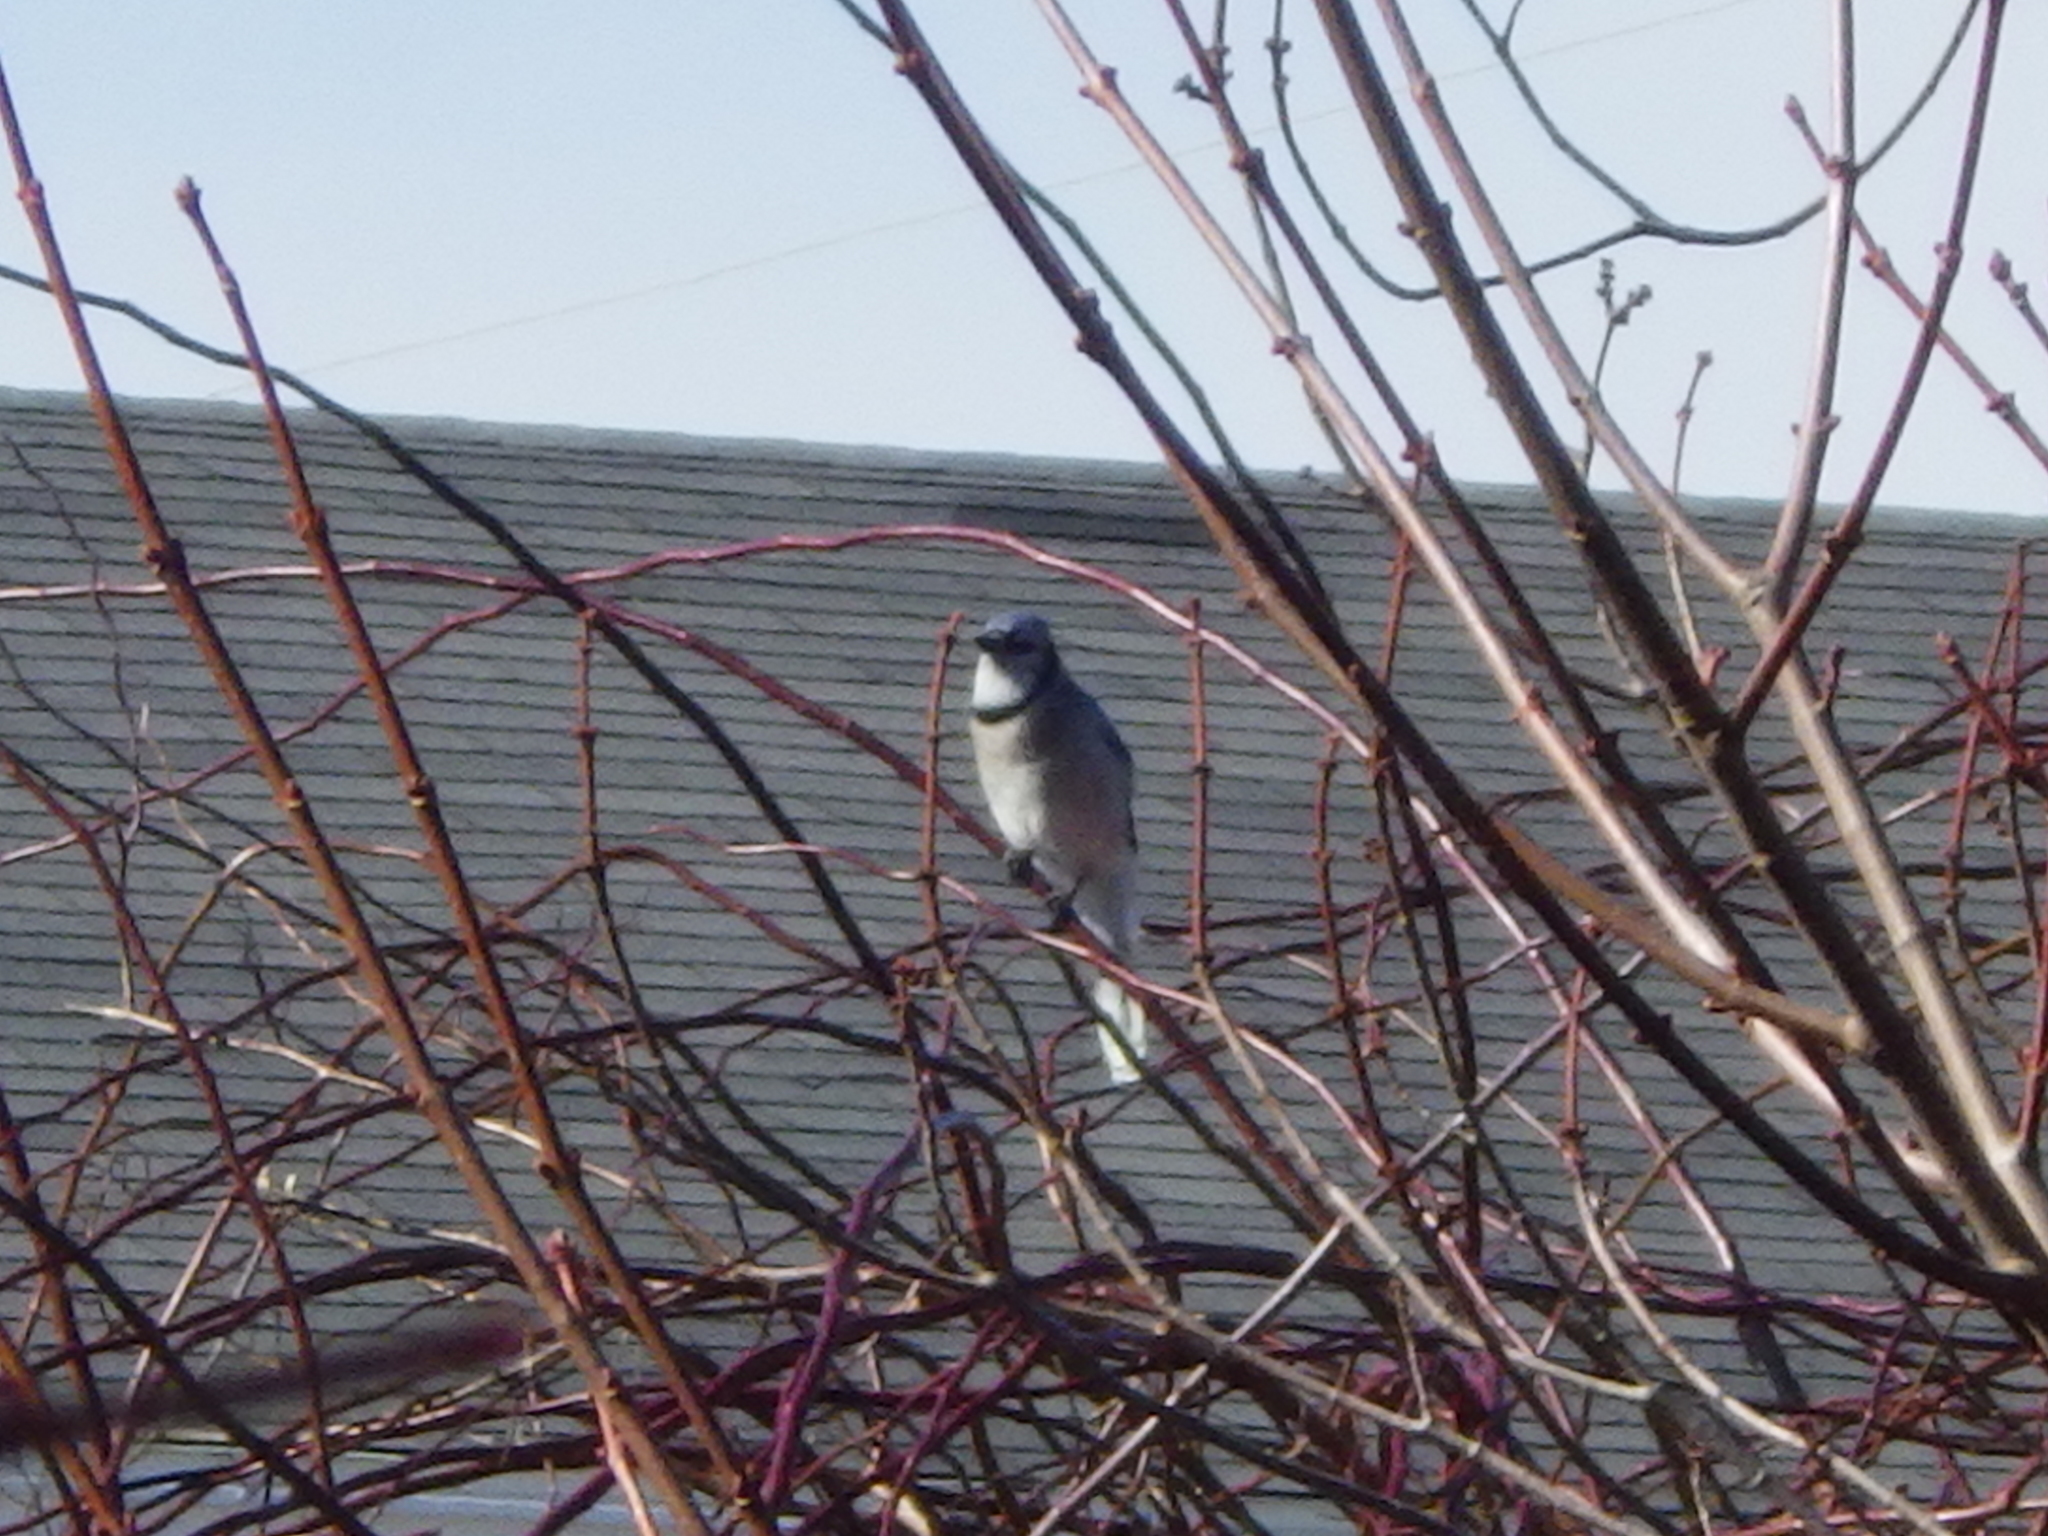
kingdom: Animalia
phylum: Chordata
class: Aves
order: Passeriformes
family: Corvidae
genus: Cyanocitta
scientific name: Cyanocitta cristata
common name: Blue jay
